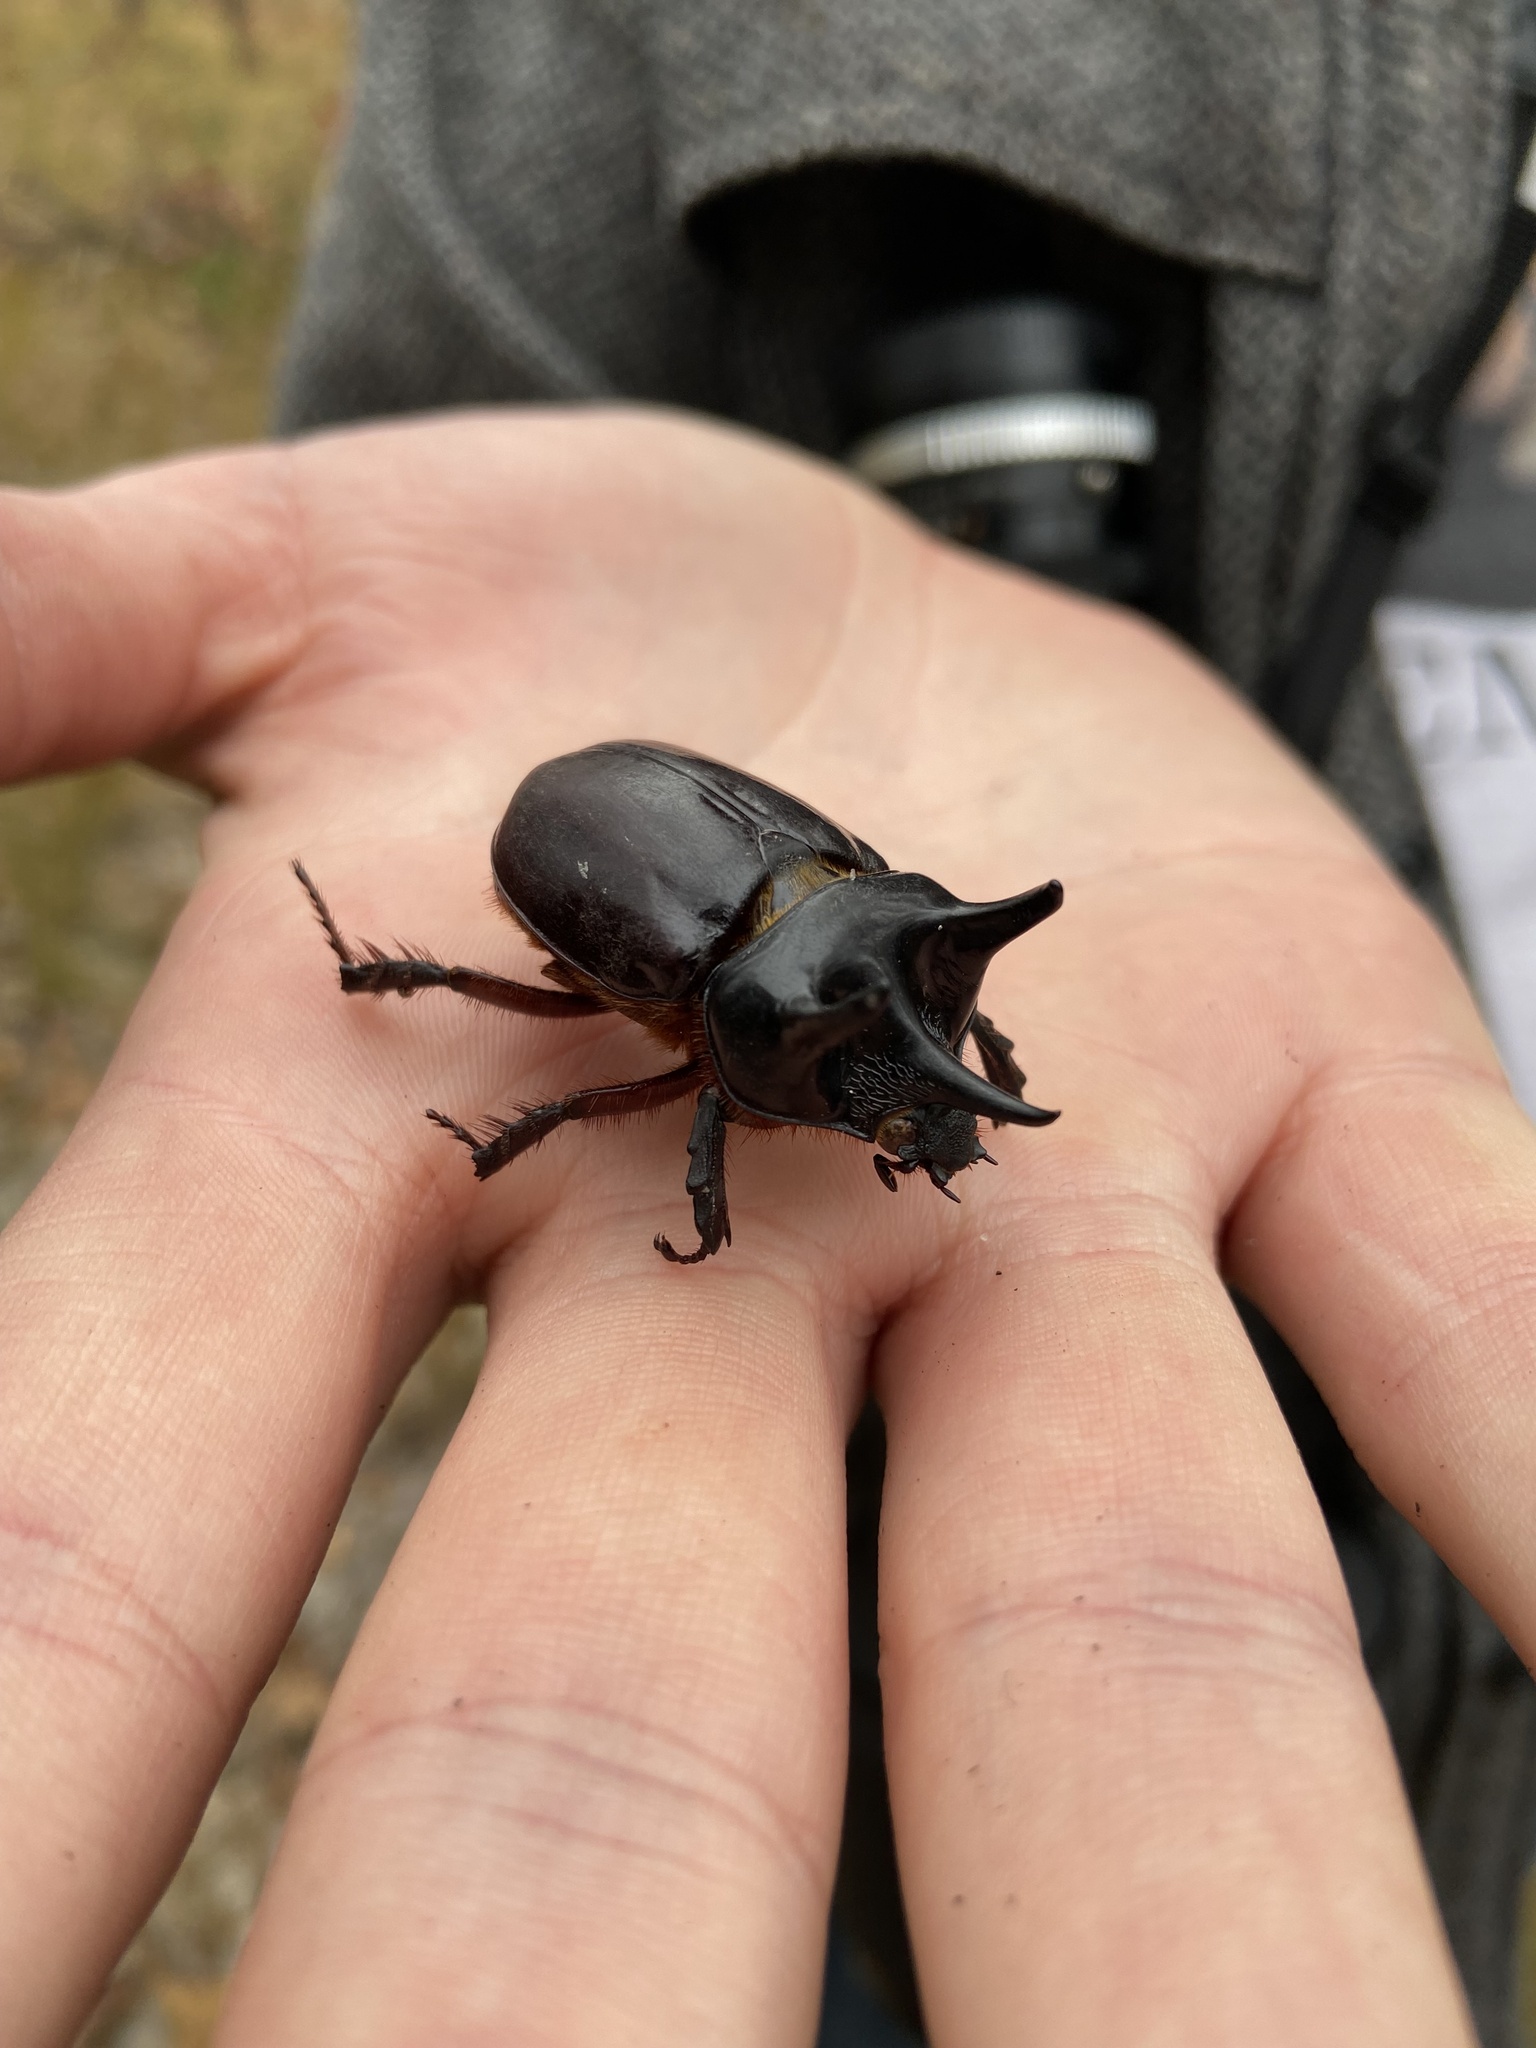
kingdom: Animalia
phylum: Arthropoda
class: Insecta
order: Coleoptera
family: Scarabaeidae
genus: Strategus
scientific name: Strategus antaeus
